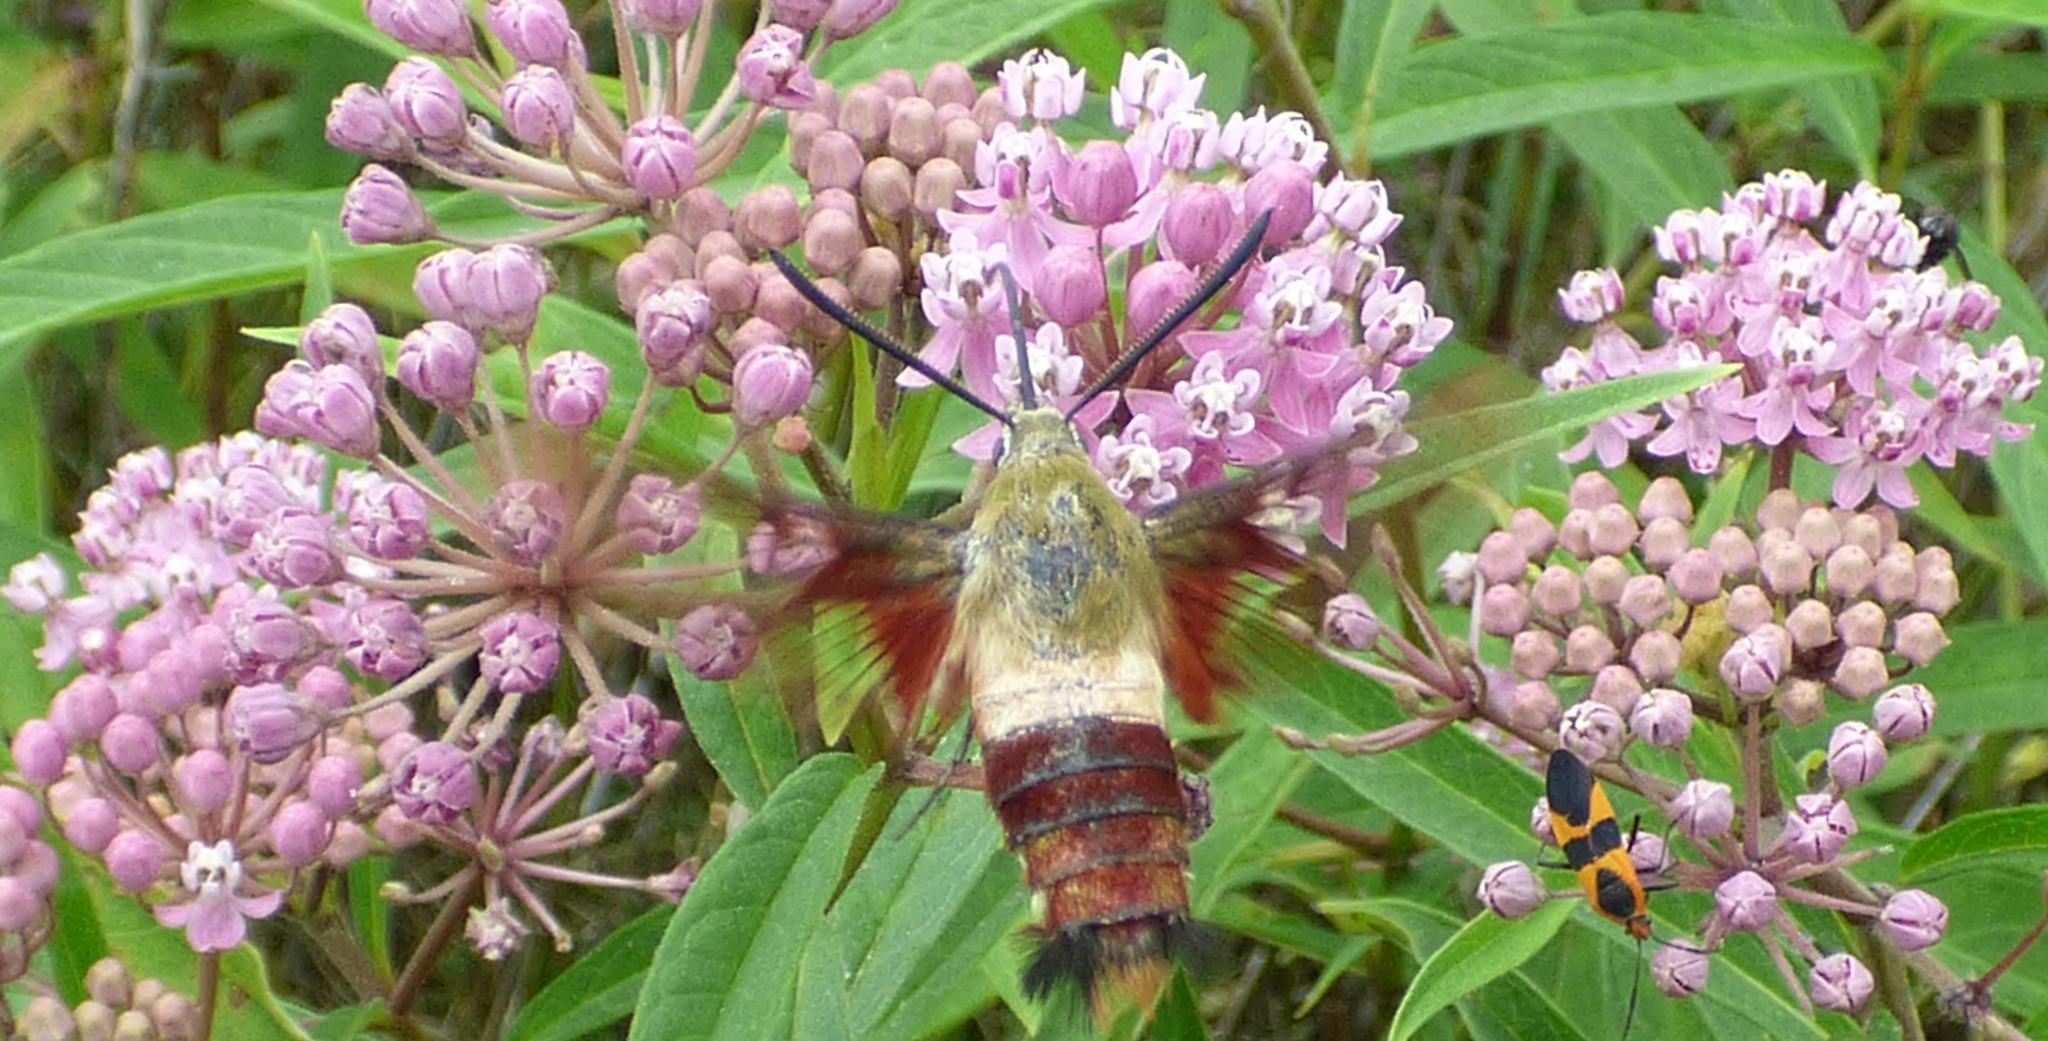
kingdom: Animalia
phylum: Arthropoda
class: Insecta
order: Lepidoptera
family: Sphingidae
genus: Hemaris
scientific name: Hemaris thysbe
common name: Common clear-wing
